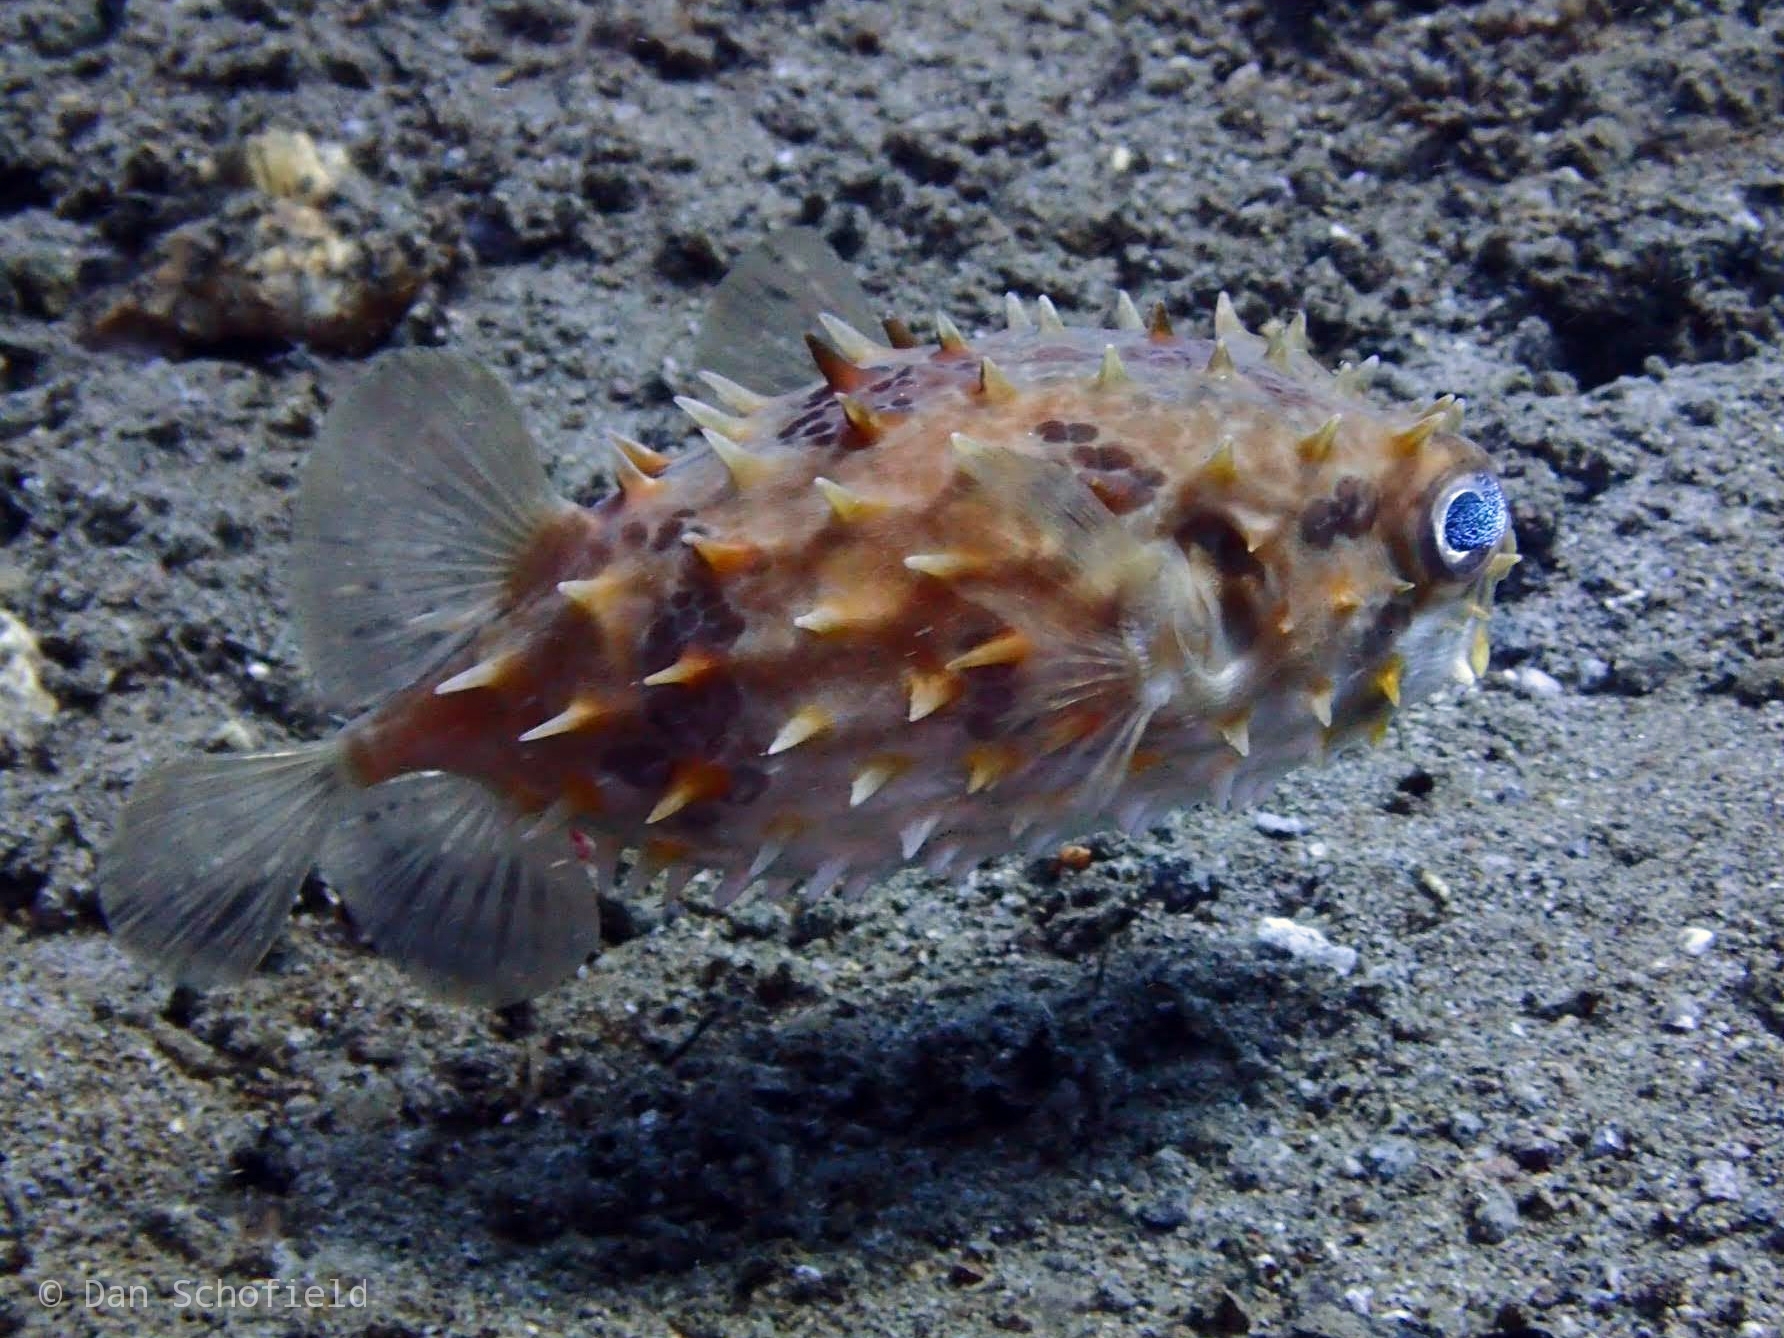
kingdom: Animalia
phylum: Chordata
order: Tetraodontiformes
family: Diodontidae
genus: Cyclichthys
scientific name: Cyclichthys orbicularis
